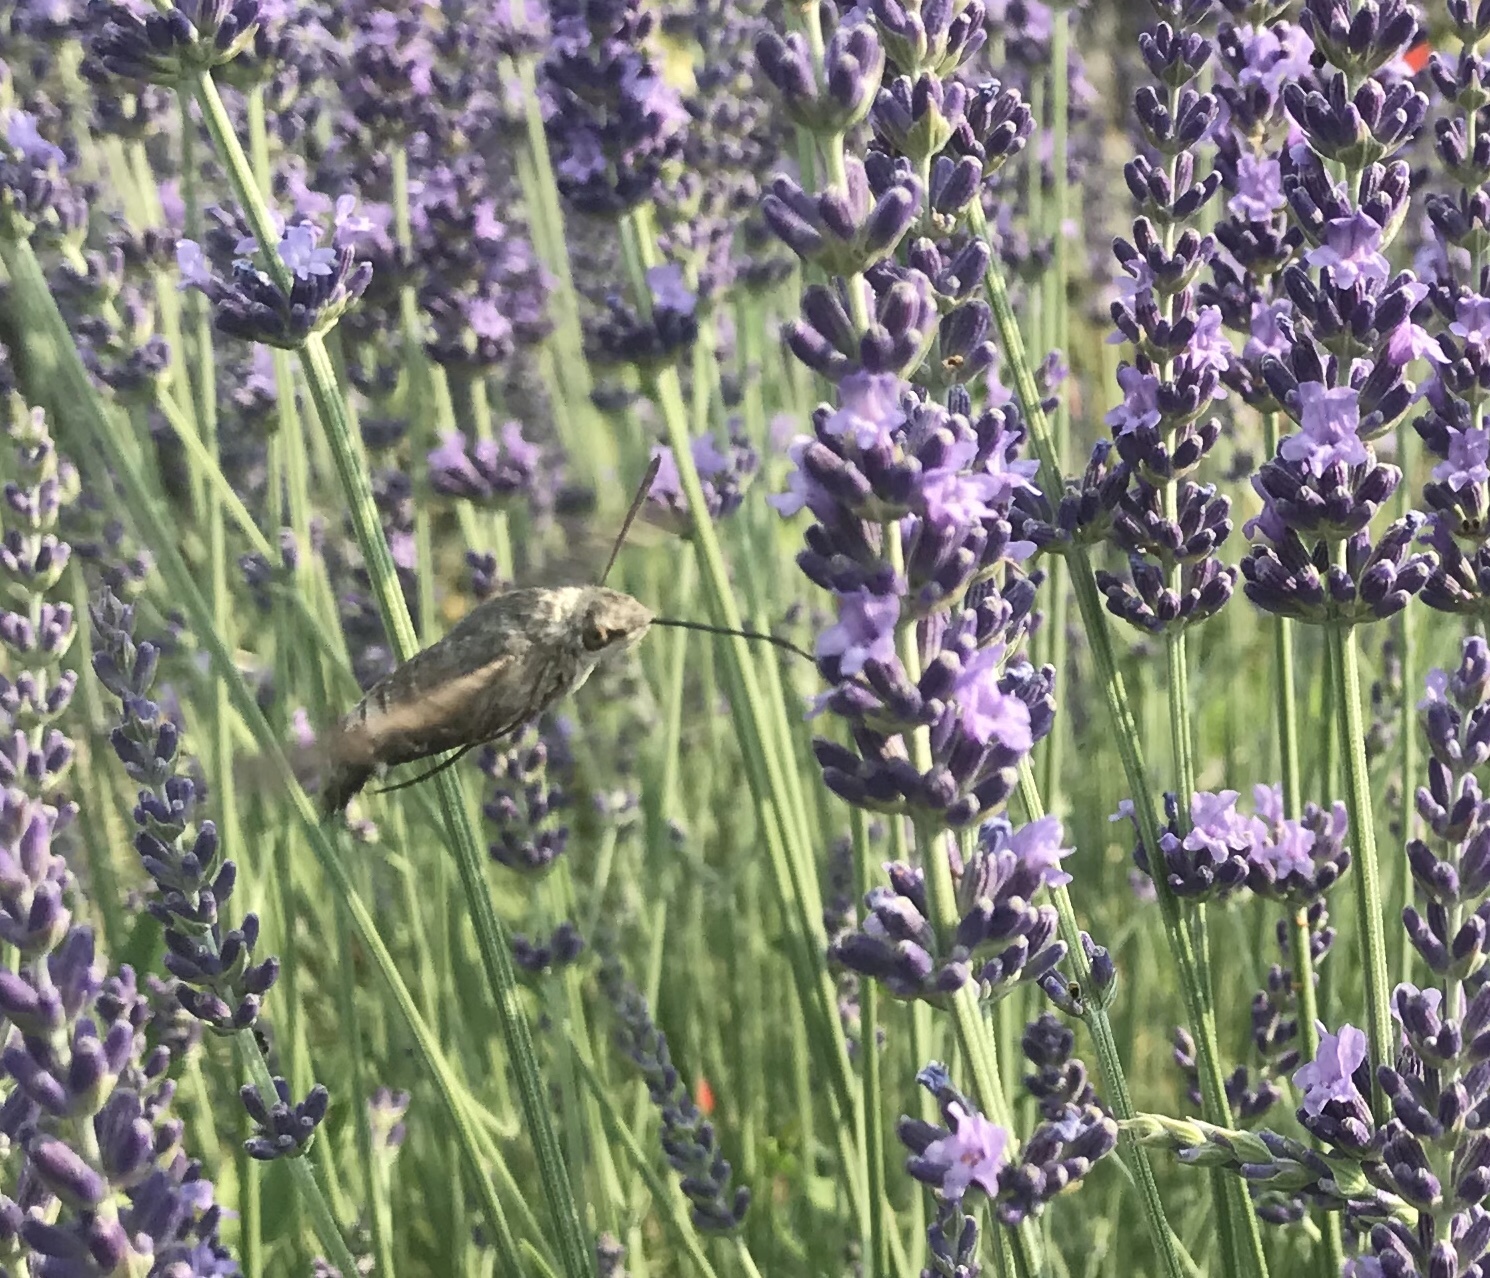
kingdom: Animalia
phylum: Arthropoda
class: Insecta
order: Lepidoptera
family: Sphingidae
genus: Macroglossum
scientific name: Macroglossum stellatarum
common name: Humming-bird hawk-moth
